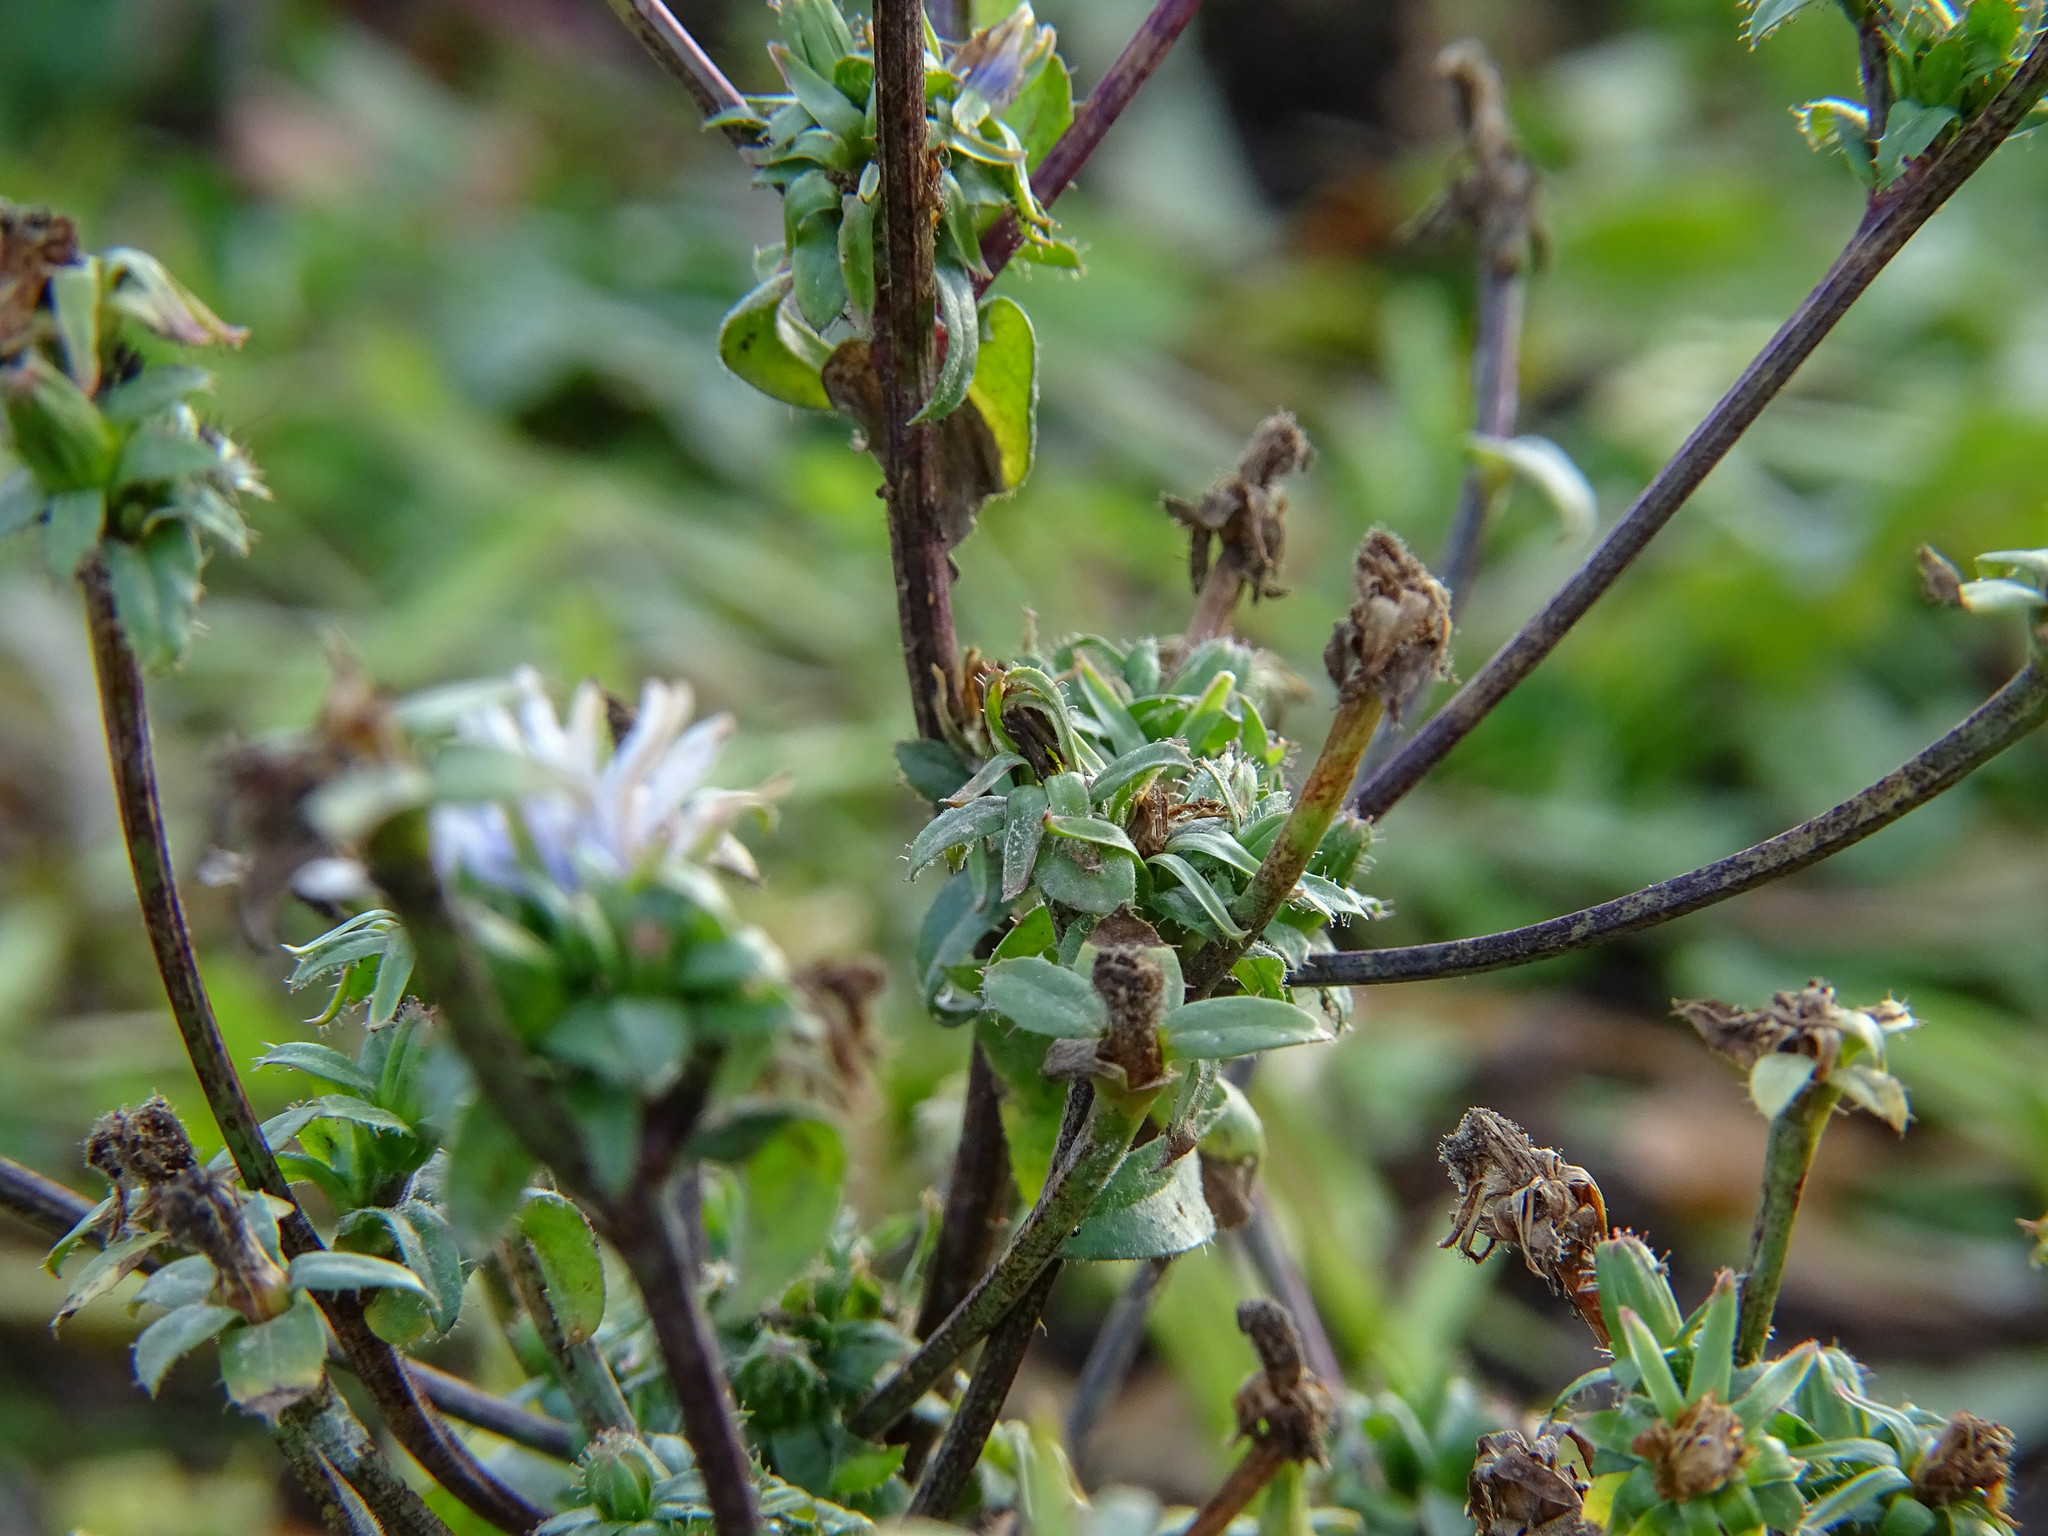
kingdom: Plantae
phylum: Tracheophyta
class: Magnoliopsida
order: Asterales
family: Asteraceae
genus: Cichorium
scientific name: Cichorium intybus
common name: Chicory
